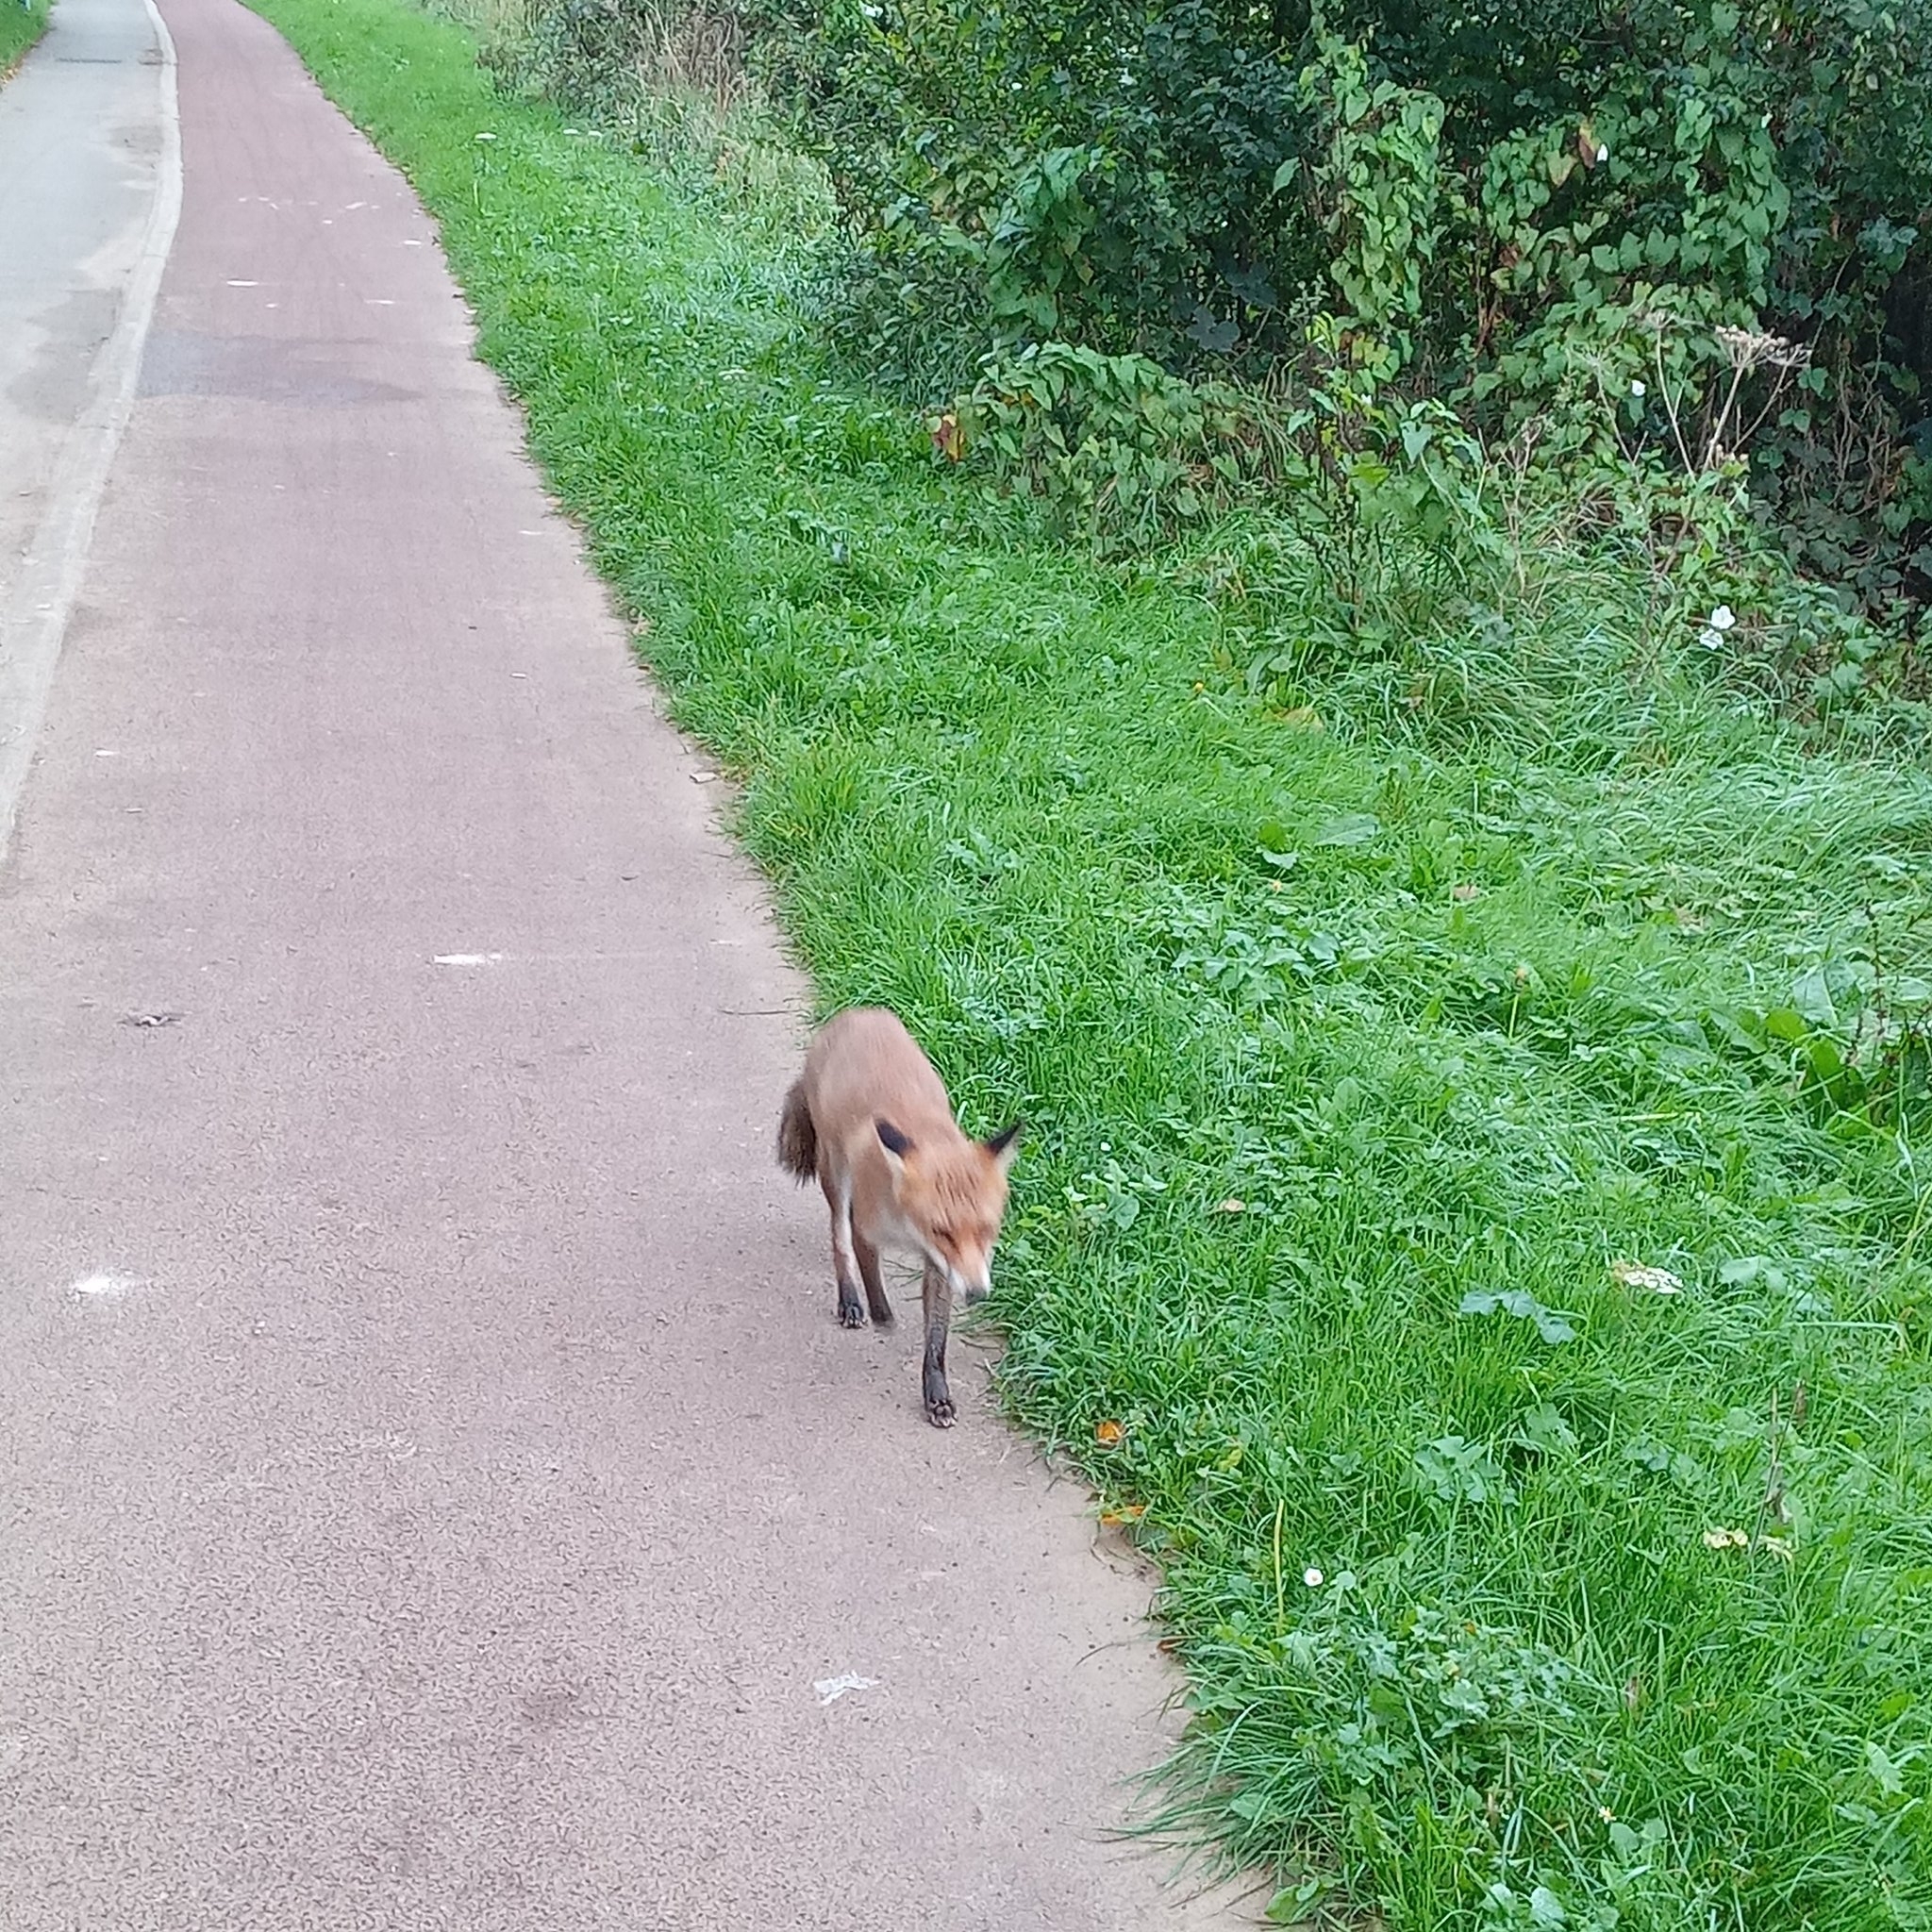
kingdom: Animalia
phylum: Chordata
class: Mammalia
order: Carnivora
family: Canidae
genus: Vulpes
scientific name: Vulpes vulpes
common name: Red fox
